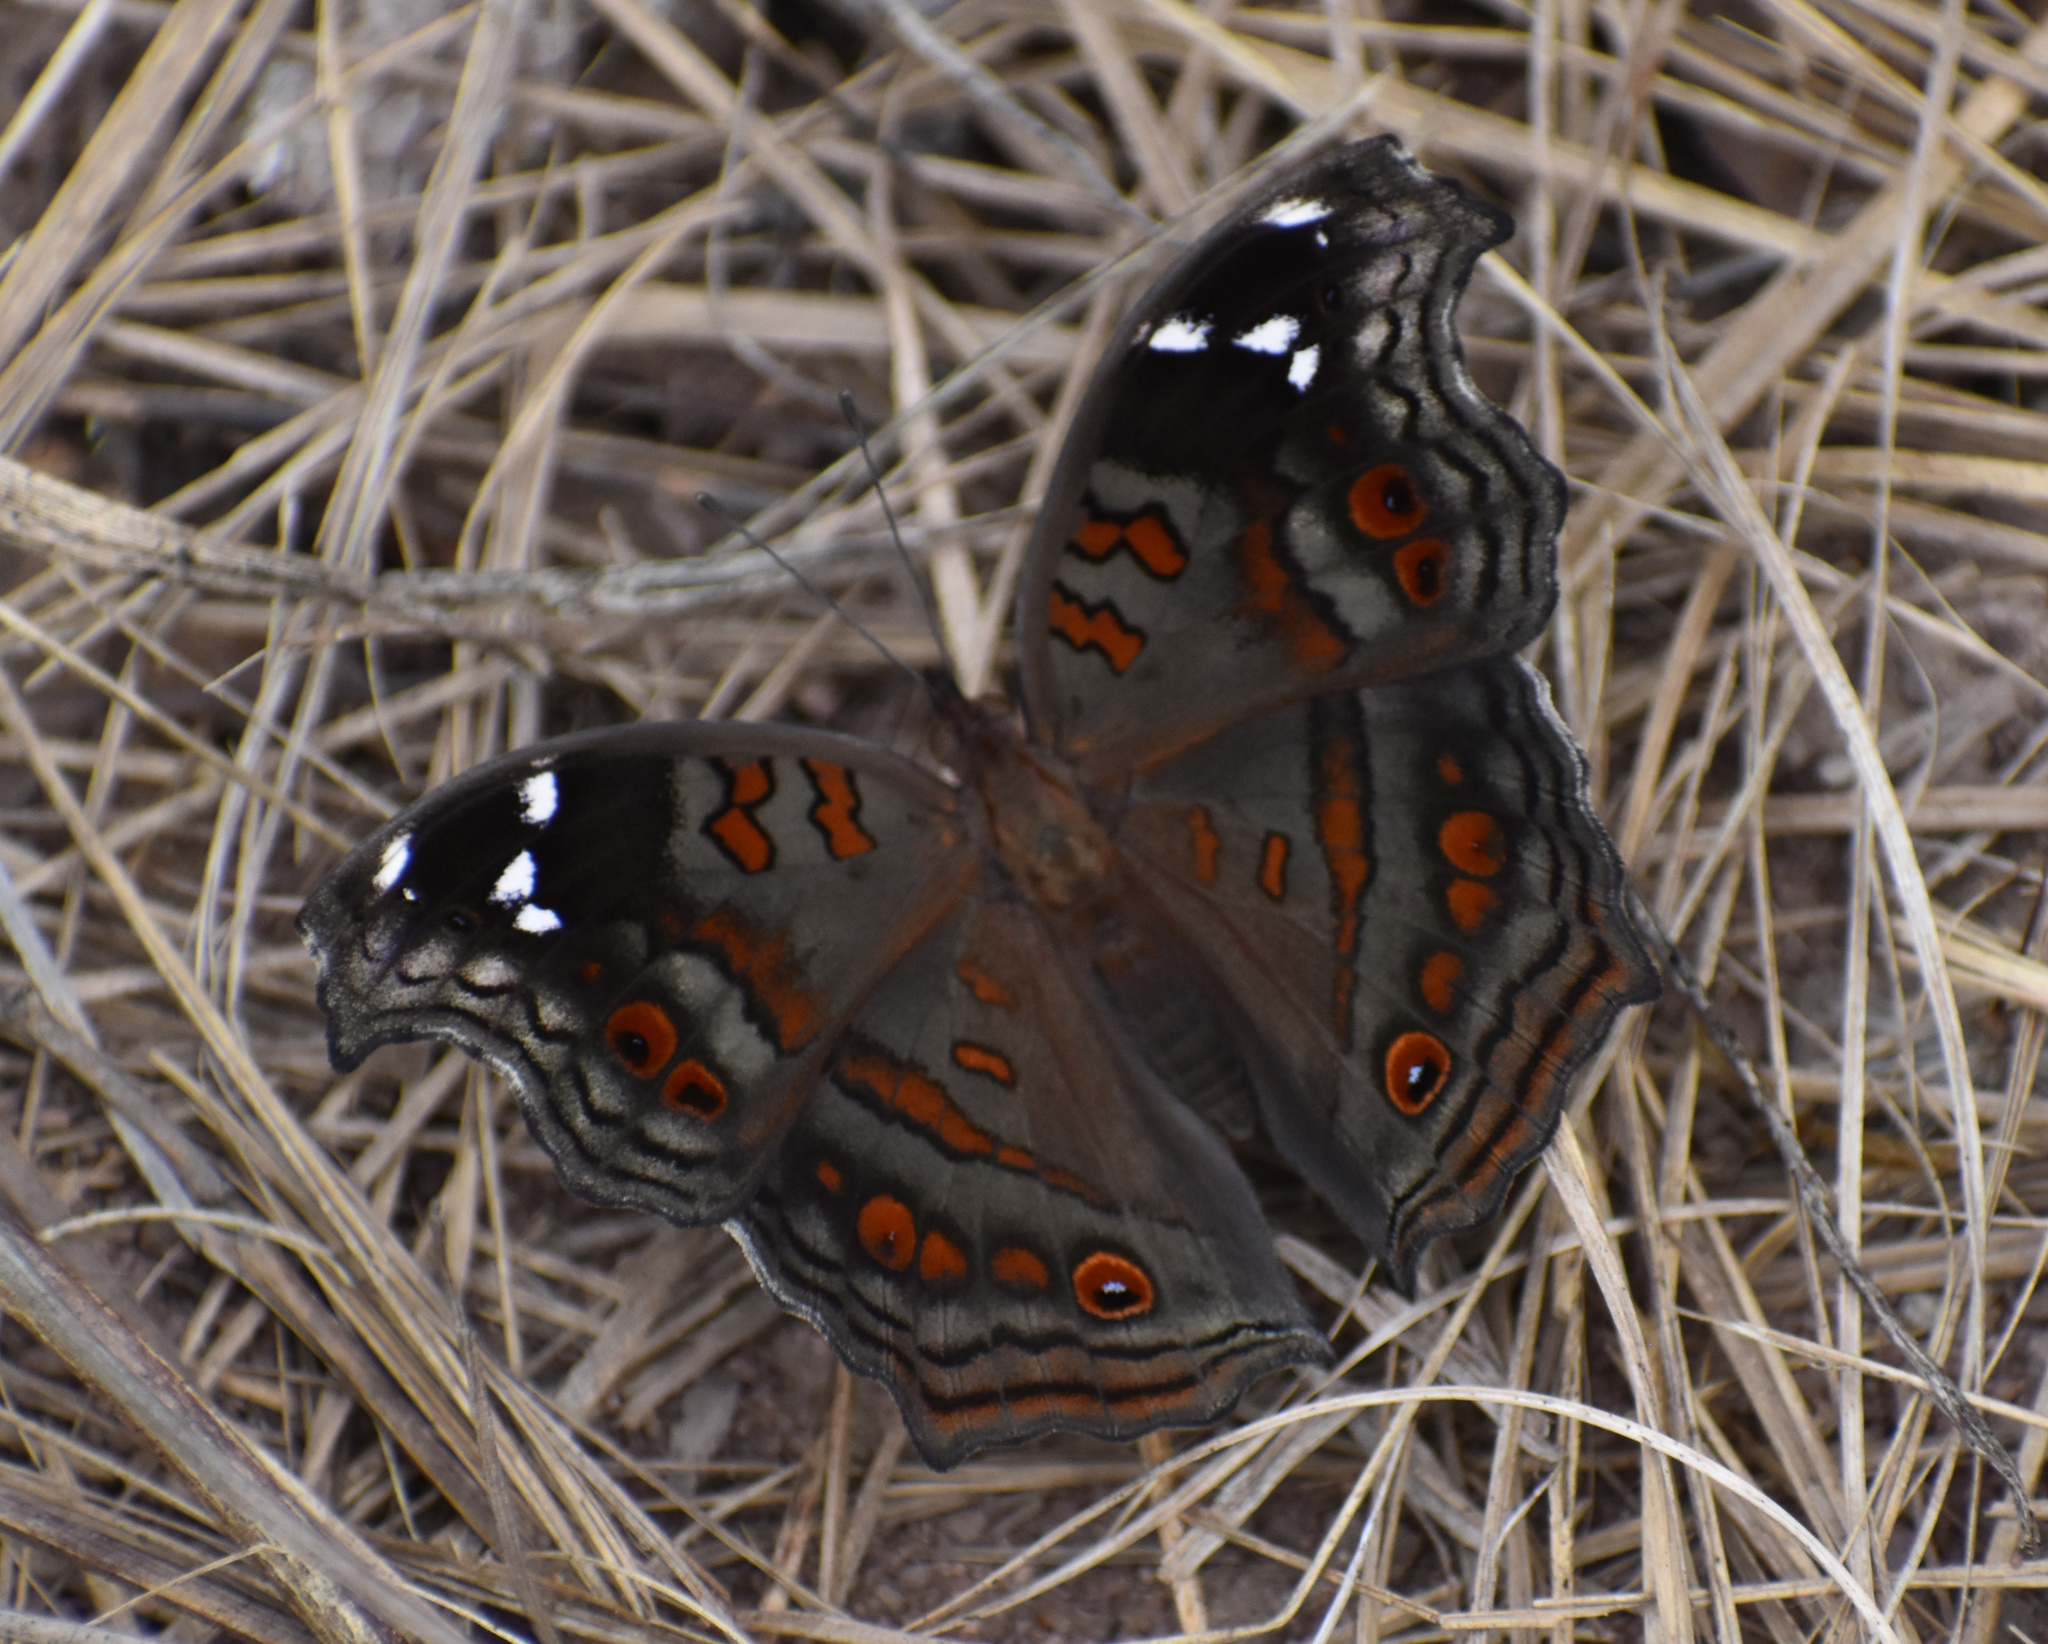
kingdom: Animalia
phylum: Arthropoda
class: Insecta
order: Lepidoptera
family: Nymphalidae
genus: Junonia
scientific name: Junonia natalica
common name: Brown pansy
